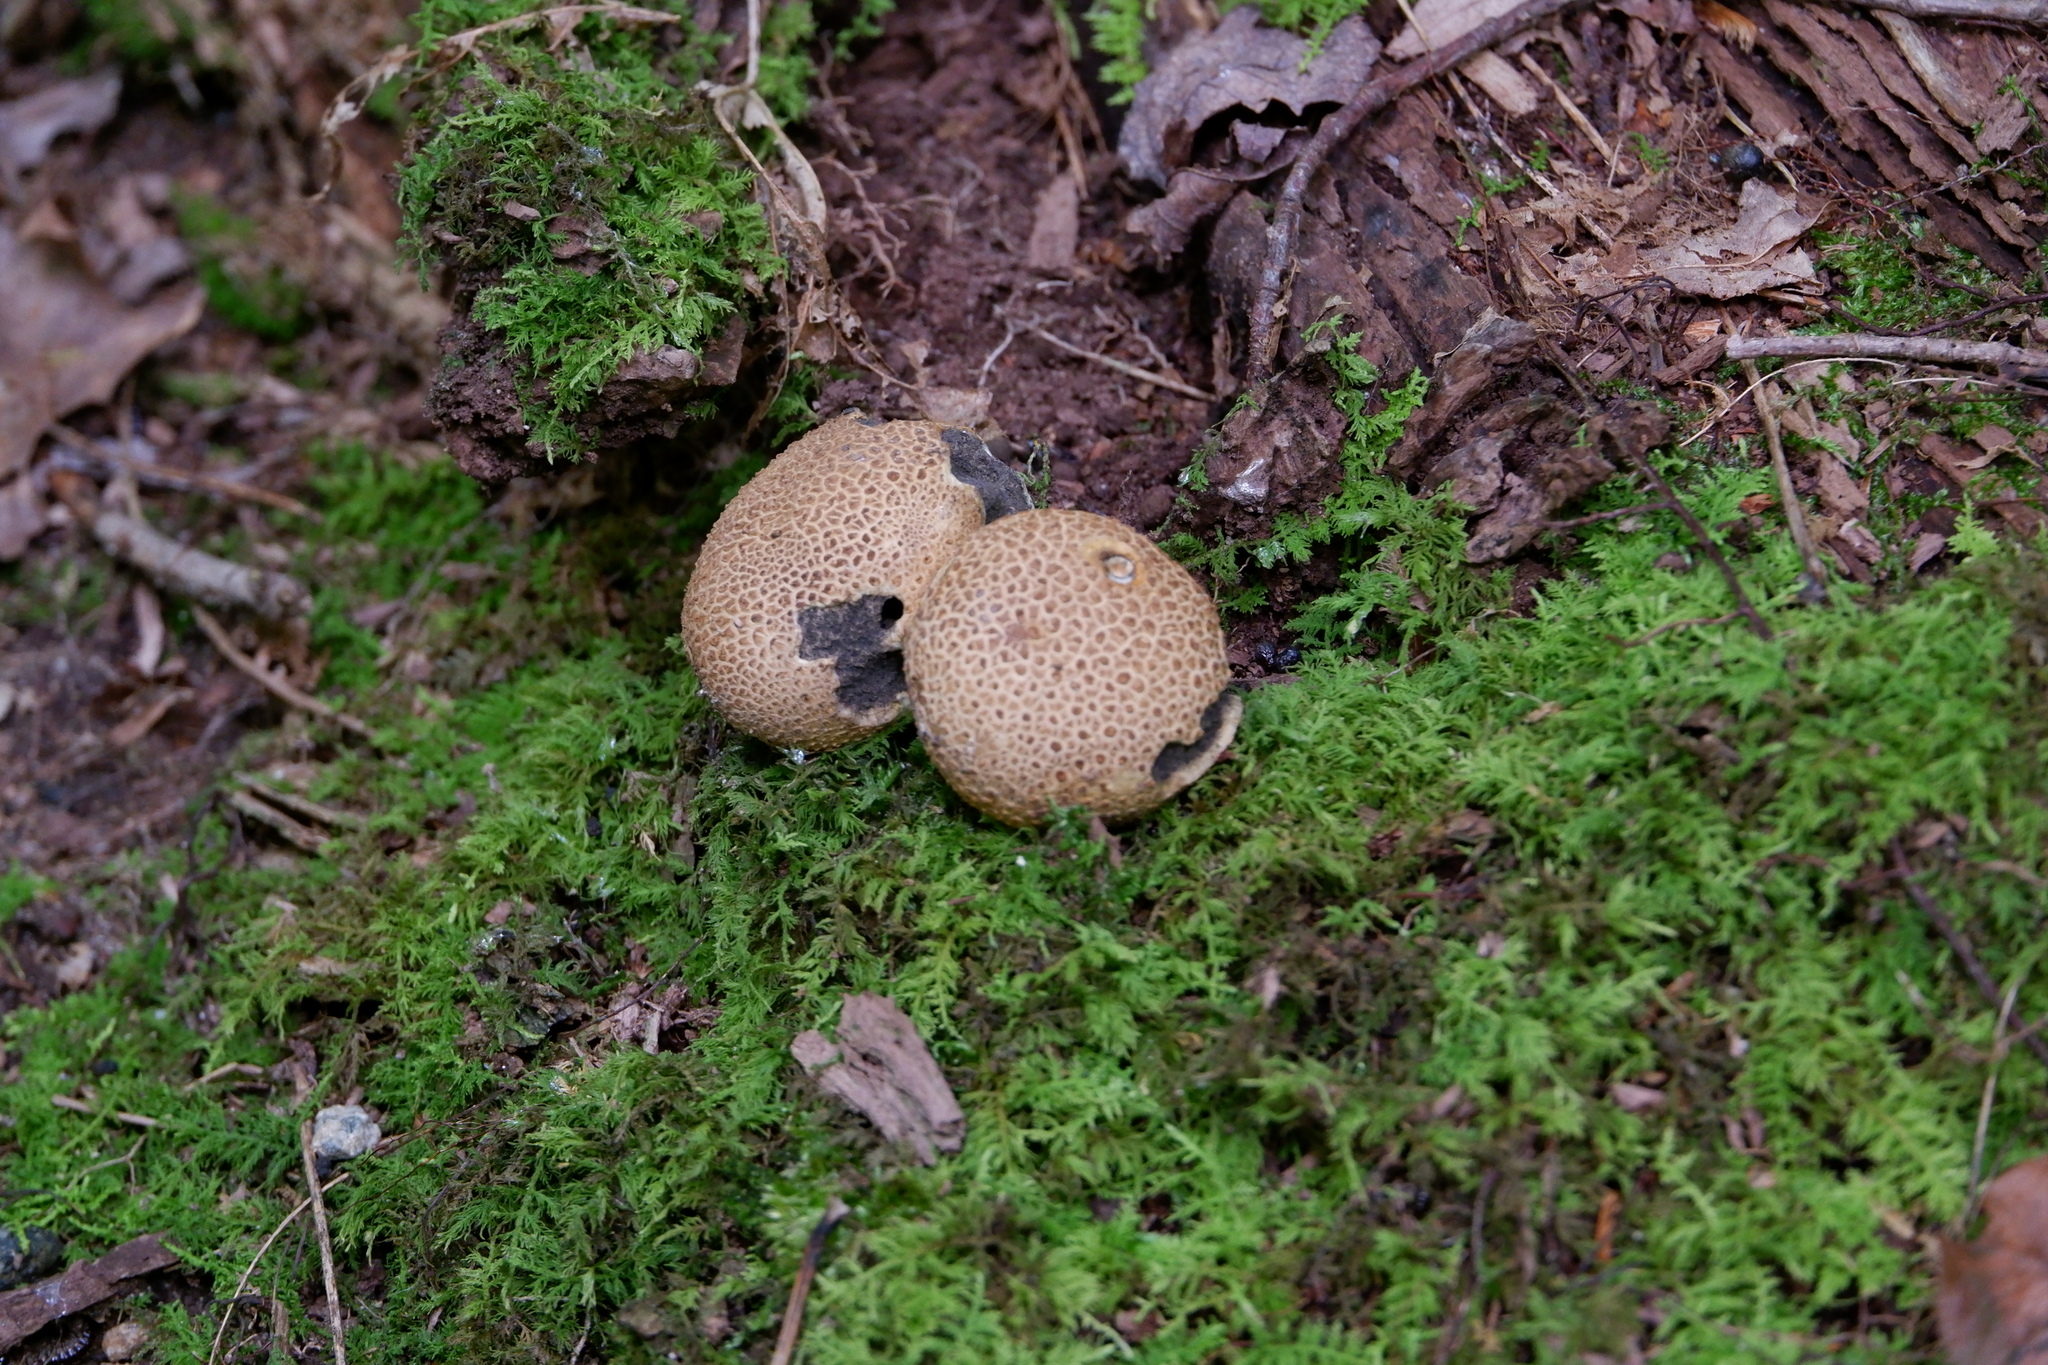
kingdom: Fungi
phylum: Basidiomycota
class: Agaricomycetes
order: Boletales
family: Sclerodermataceae
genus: Scleroderma
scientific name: Scleroderma citrinum
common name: Common earthball
